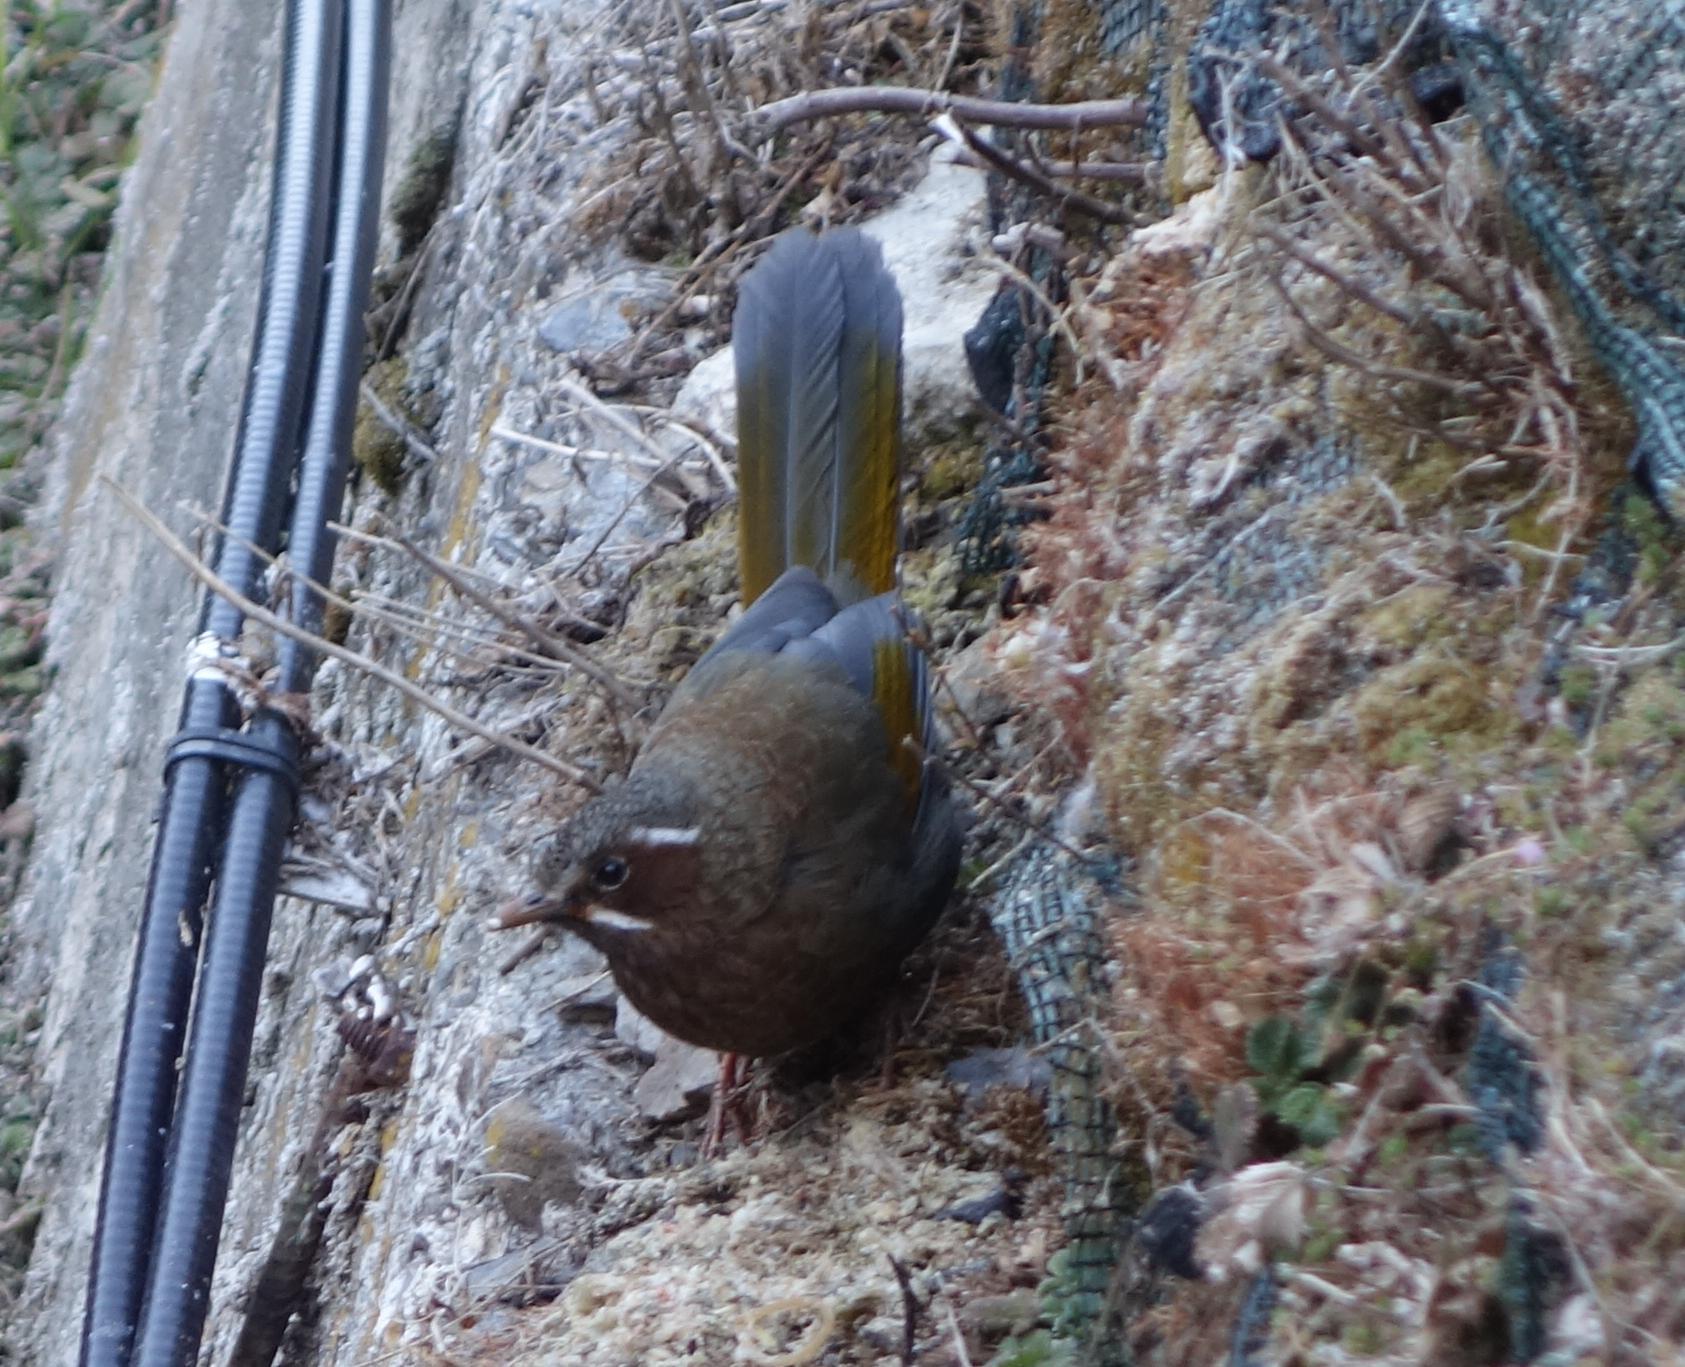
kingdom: Animalia
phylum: Chordata
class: Aves
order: Passeriformes
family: Leiothrichidae
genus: Trochalopteron
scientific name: Trochalopteron morrisonianum
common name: White-whiskered laughingthrush
